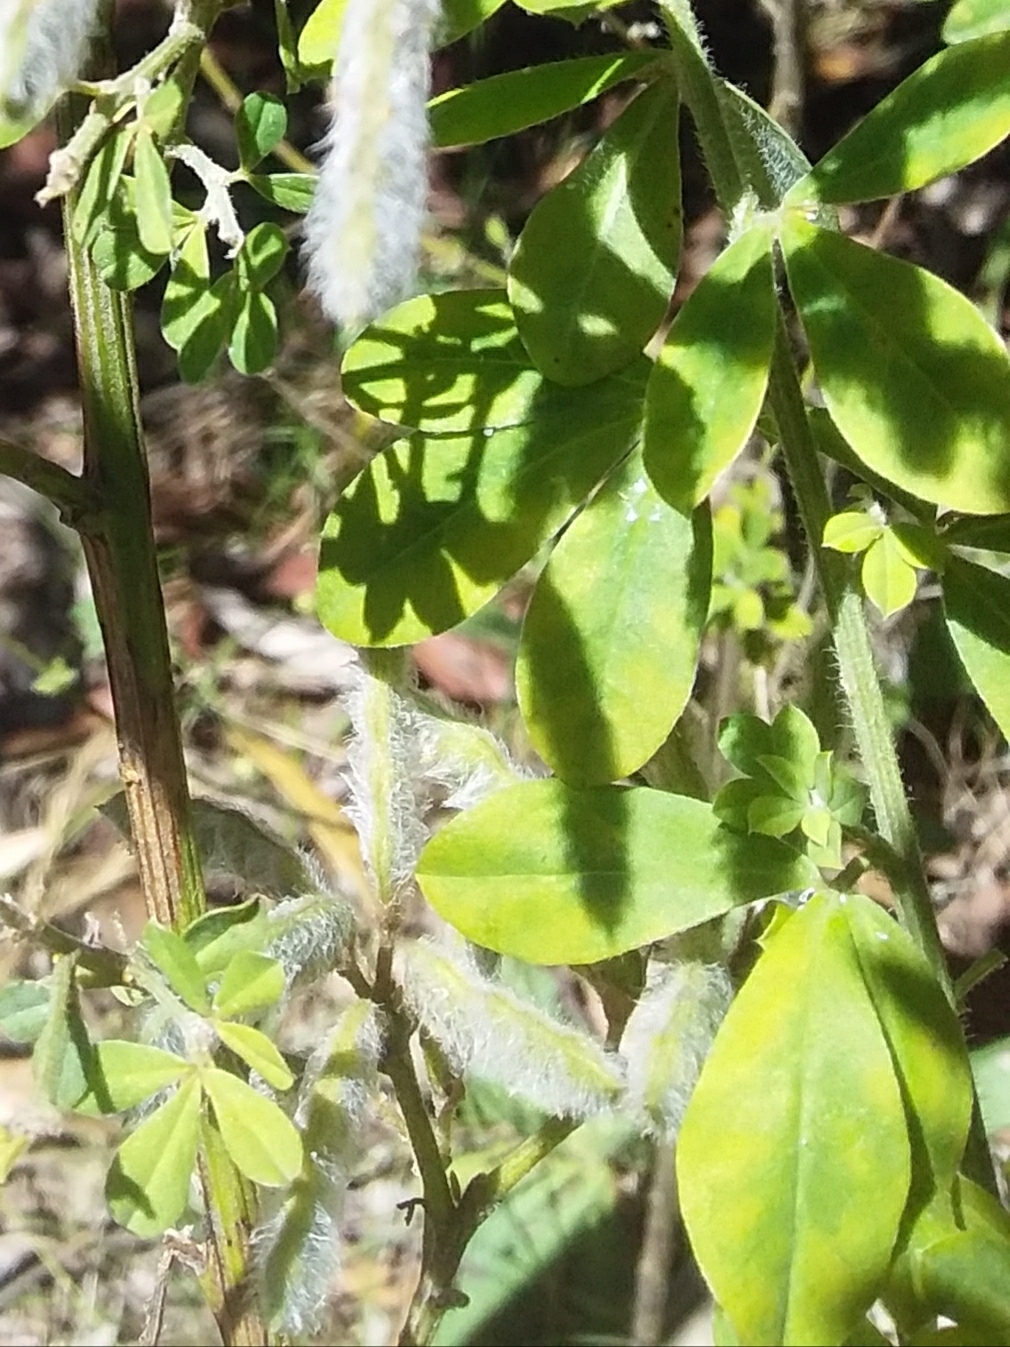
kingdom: Plantae
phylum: Tracheophyta
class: Magnoliopsida
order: Fabales
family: Fabaceae
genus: Genista
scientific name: Genista monspessulana
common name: Montpellier broom
